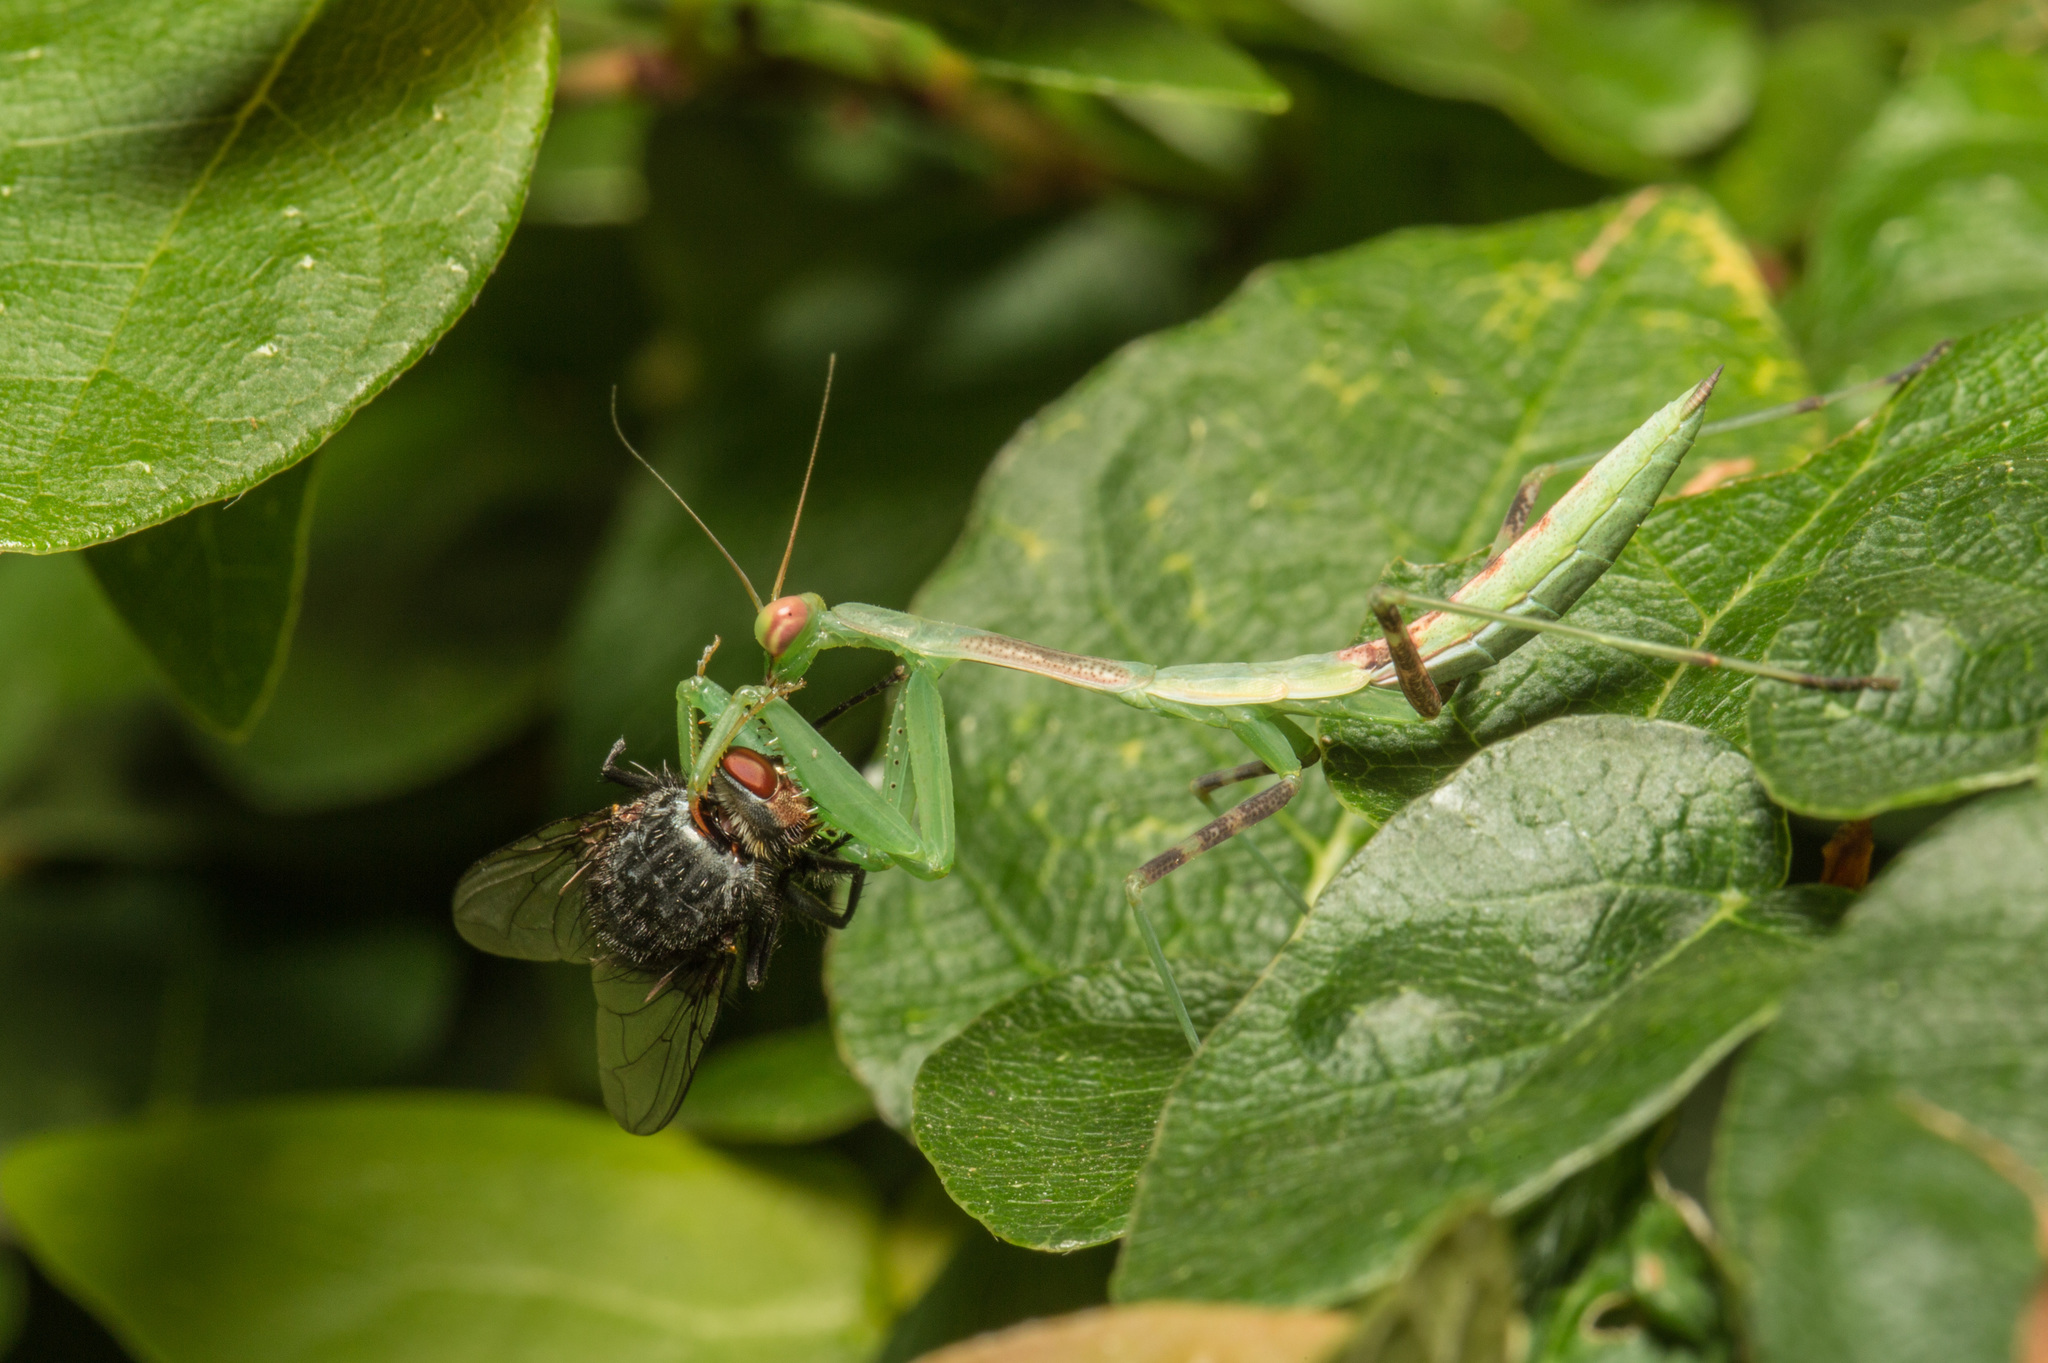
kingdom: Animalia
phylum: Arthropoda
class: Insecta
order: Mantodea
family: Miomantidae
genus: Miomantis
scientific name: Miomantis caffra
